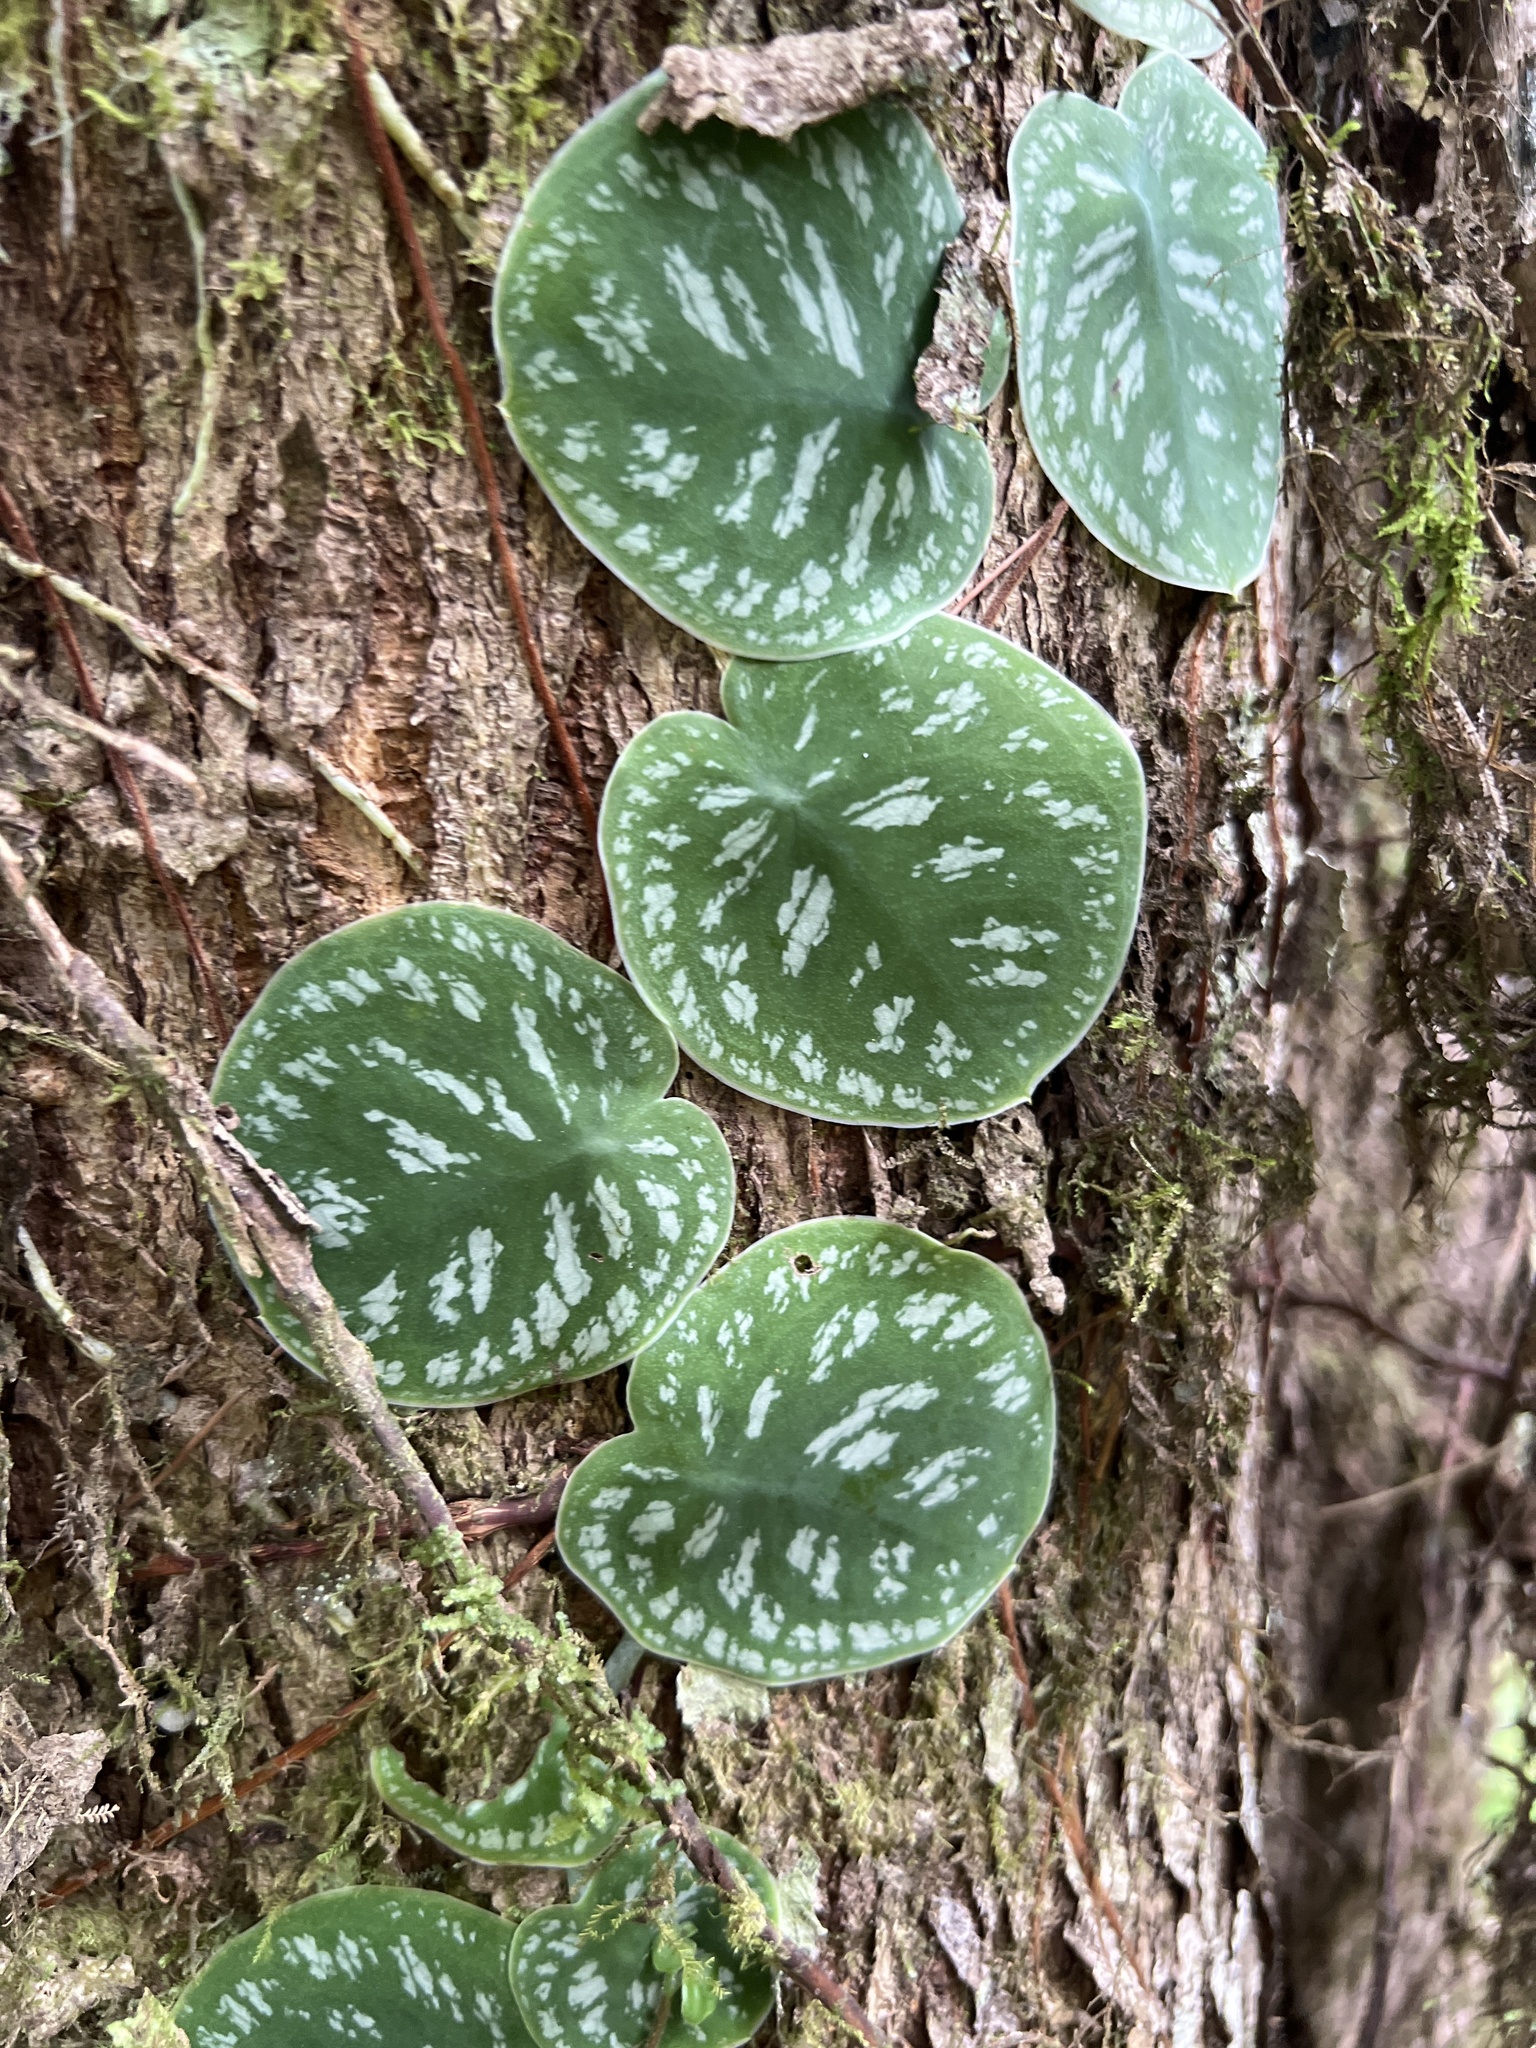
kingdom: Plantae
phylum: Tracheophyta
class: Liliopsida
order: Alismatales
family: Araceae
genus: Monstera
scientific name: Monstera tuberculata
